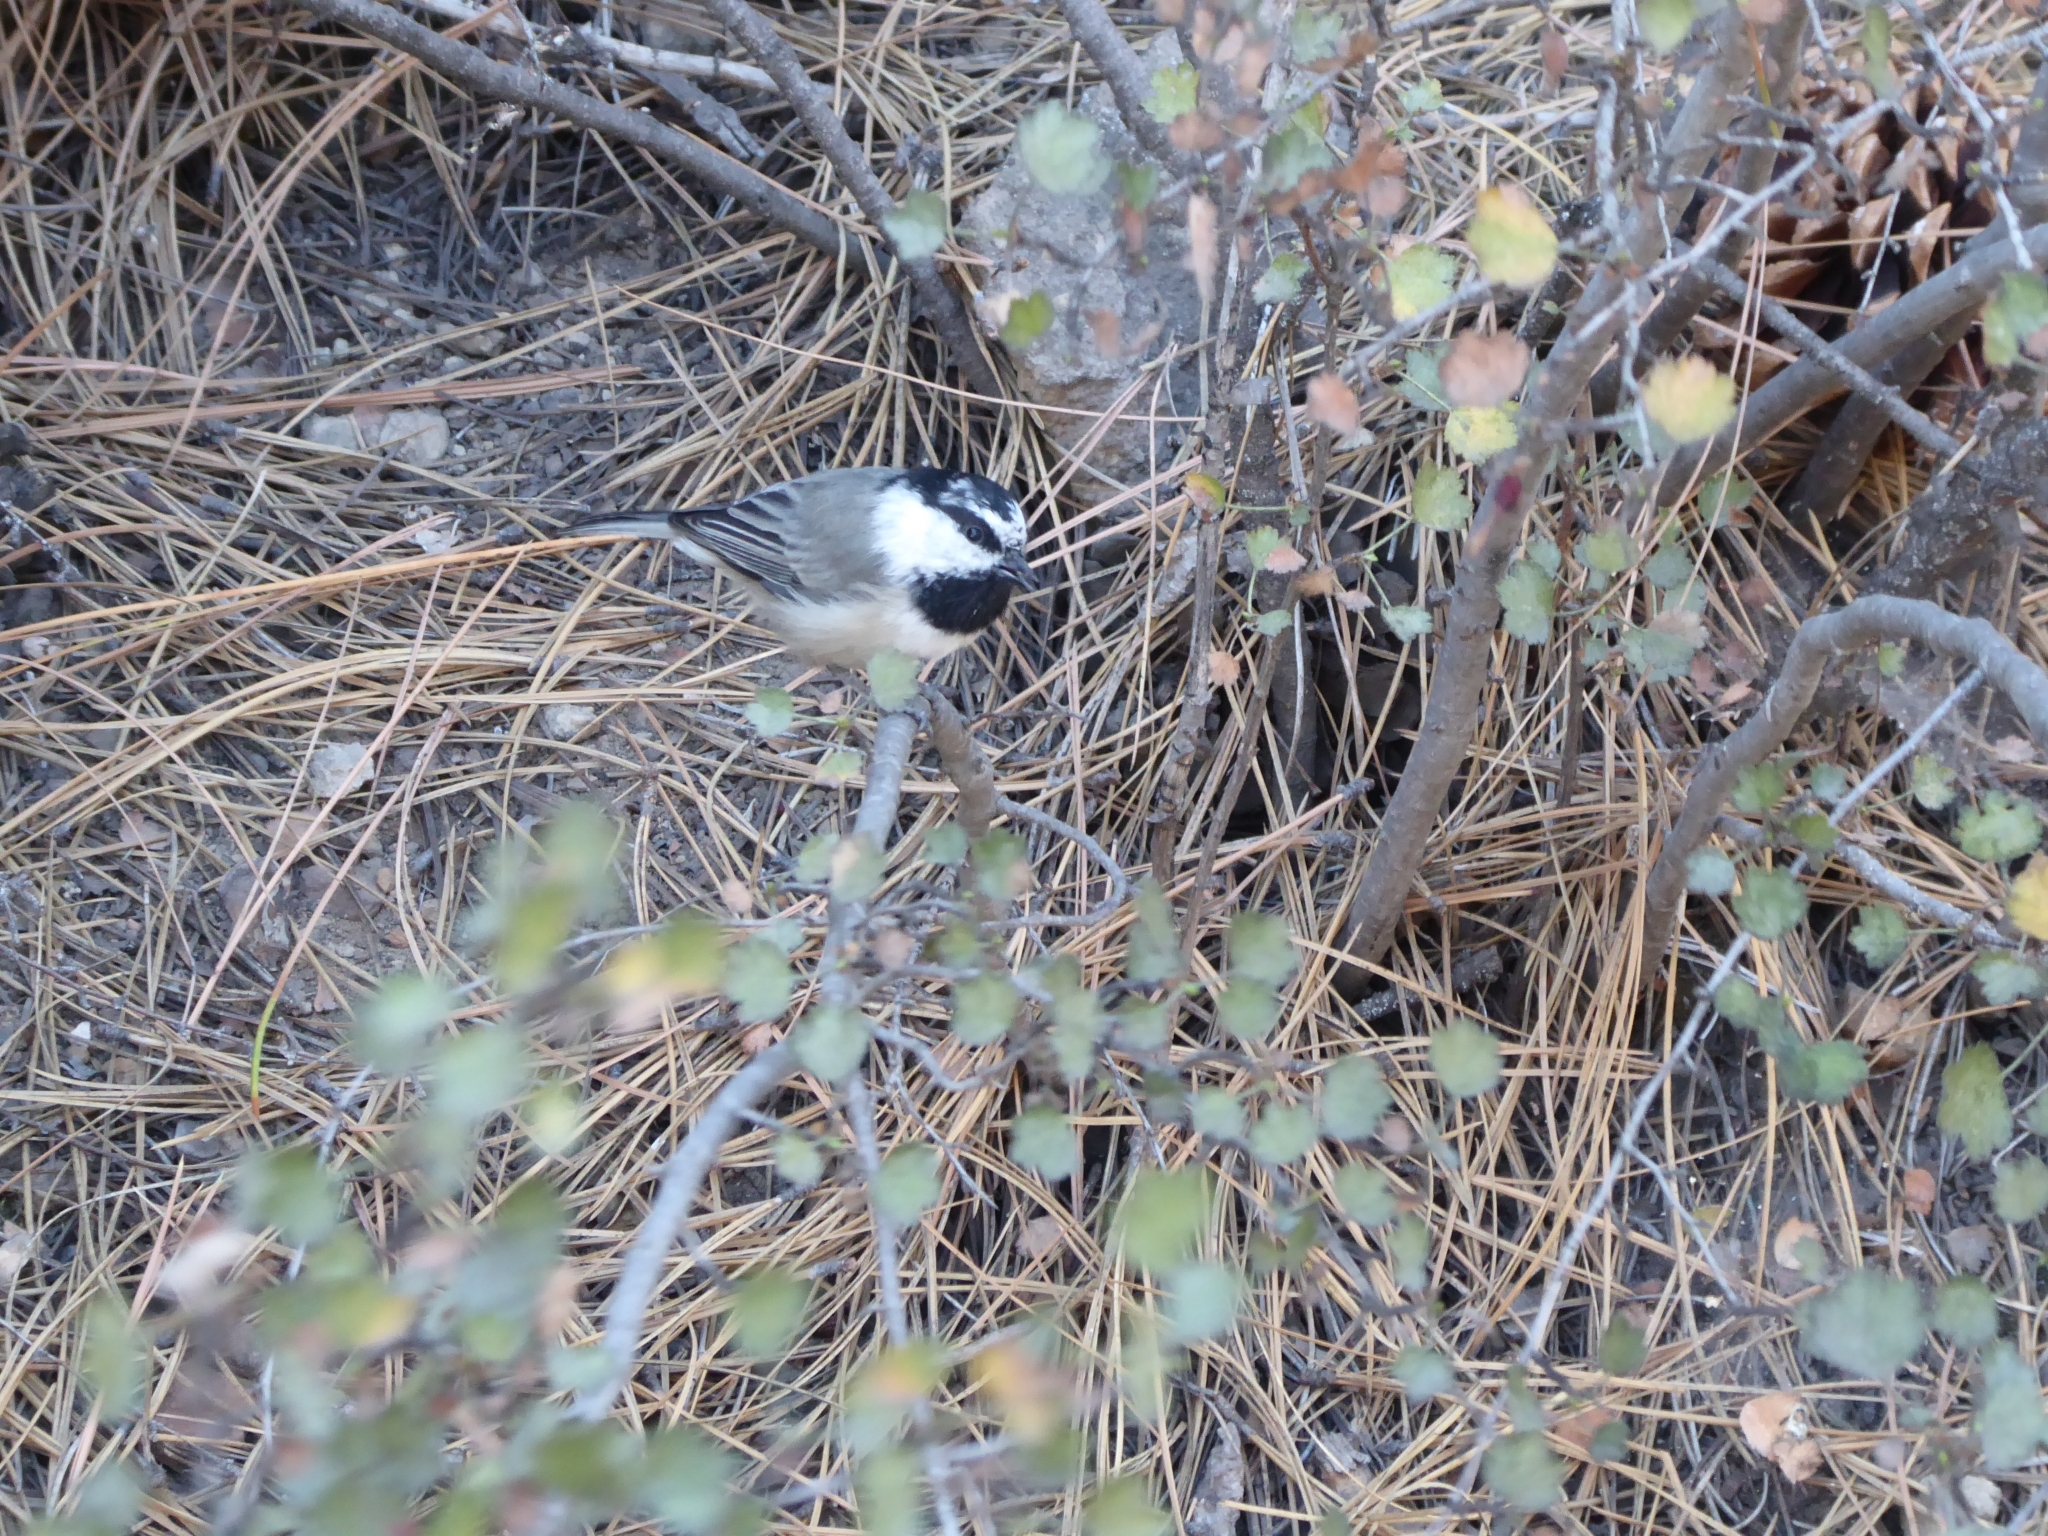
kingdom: Animalia
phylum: Chordata
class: Aves
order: Passeriformes
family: Paridae
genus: Poecile
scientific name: Poecile gambeli
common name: Mountain chickadee
